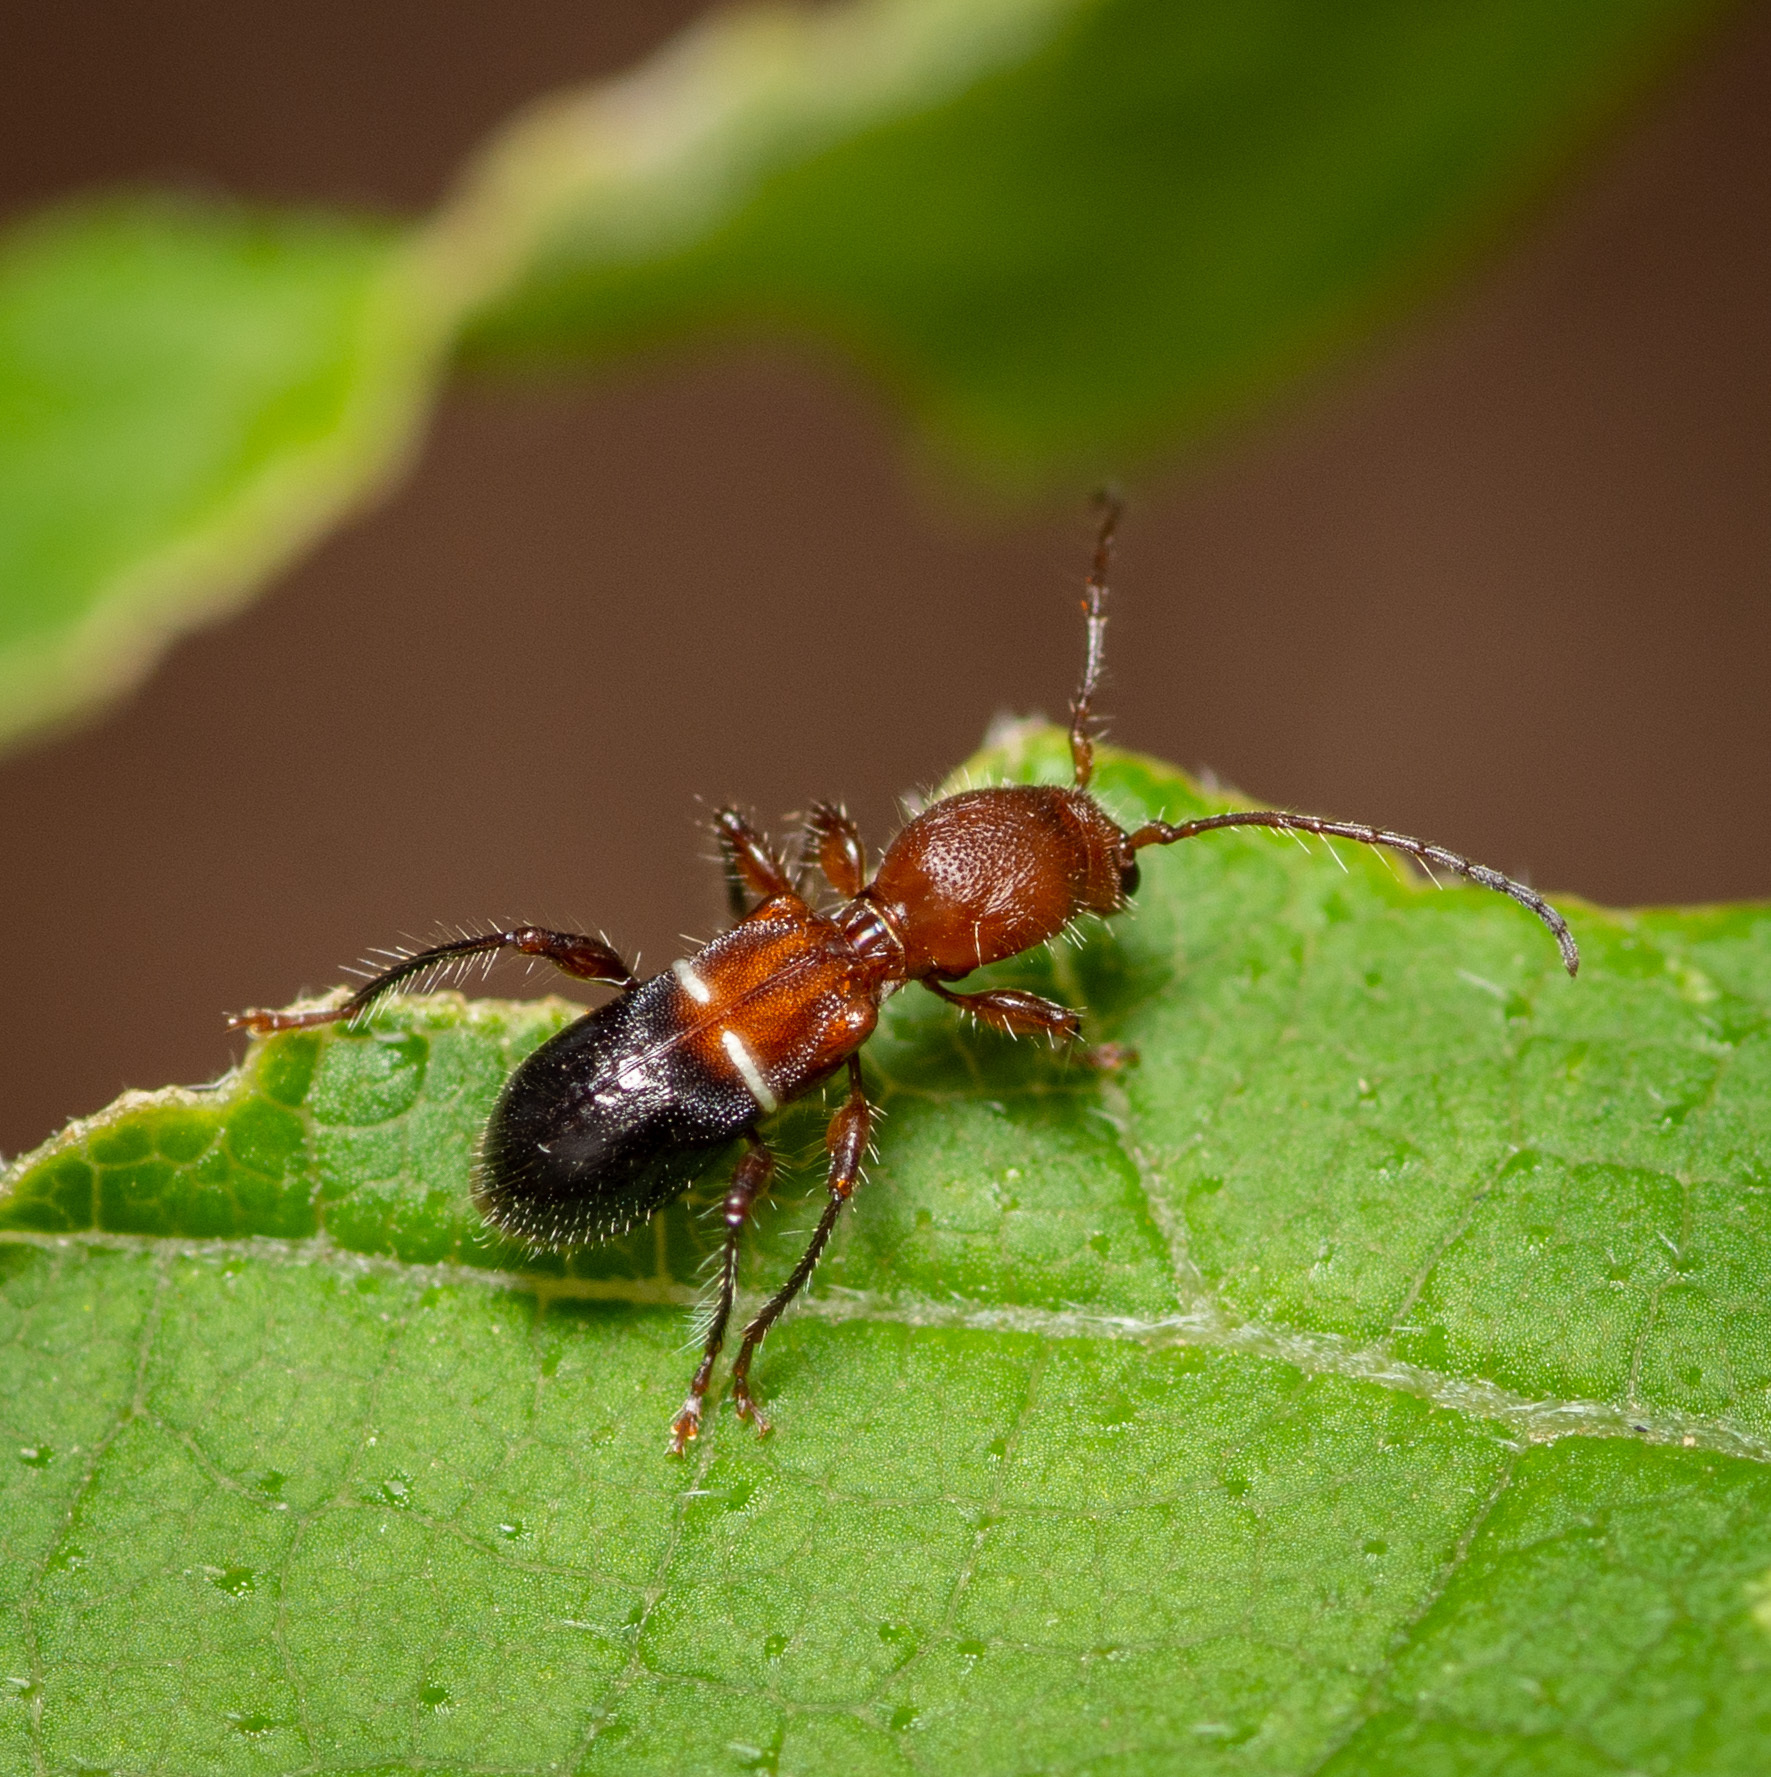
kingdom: Animalia
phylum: Arthropoda
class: Insecta
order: Coleoptera
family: Cerambycidae
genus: Euderces
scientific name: Euderces reichei
